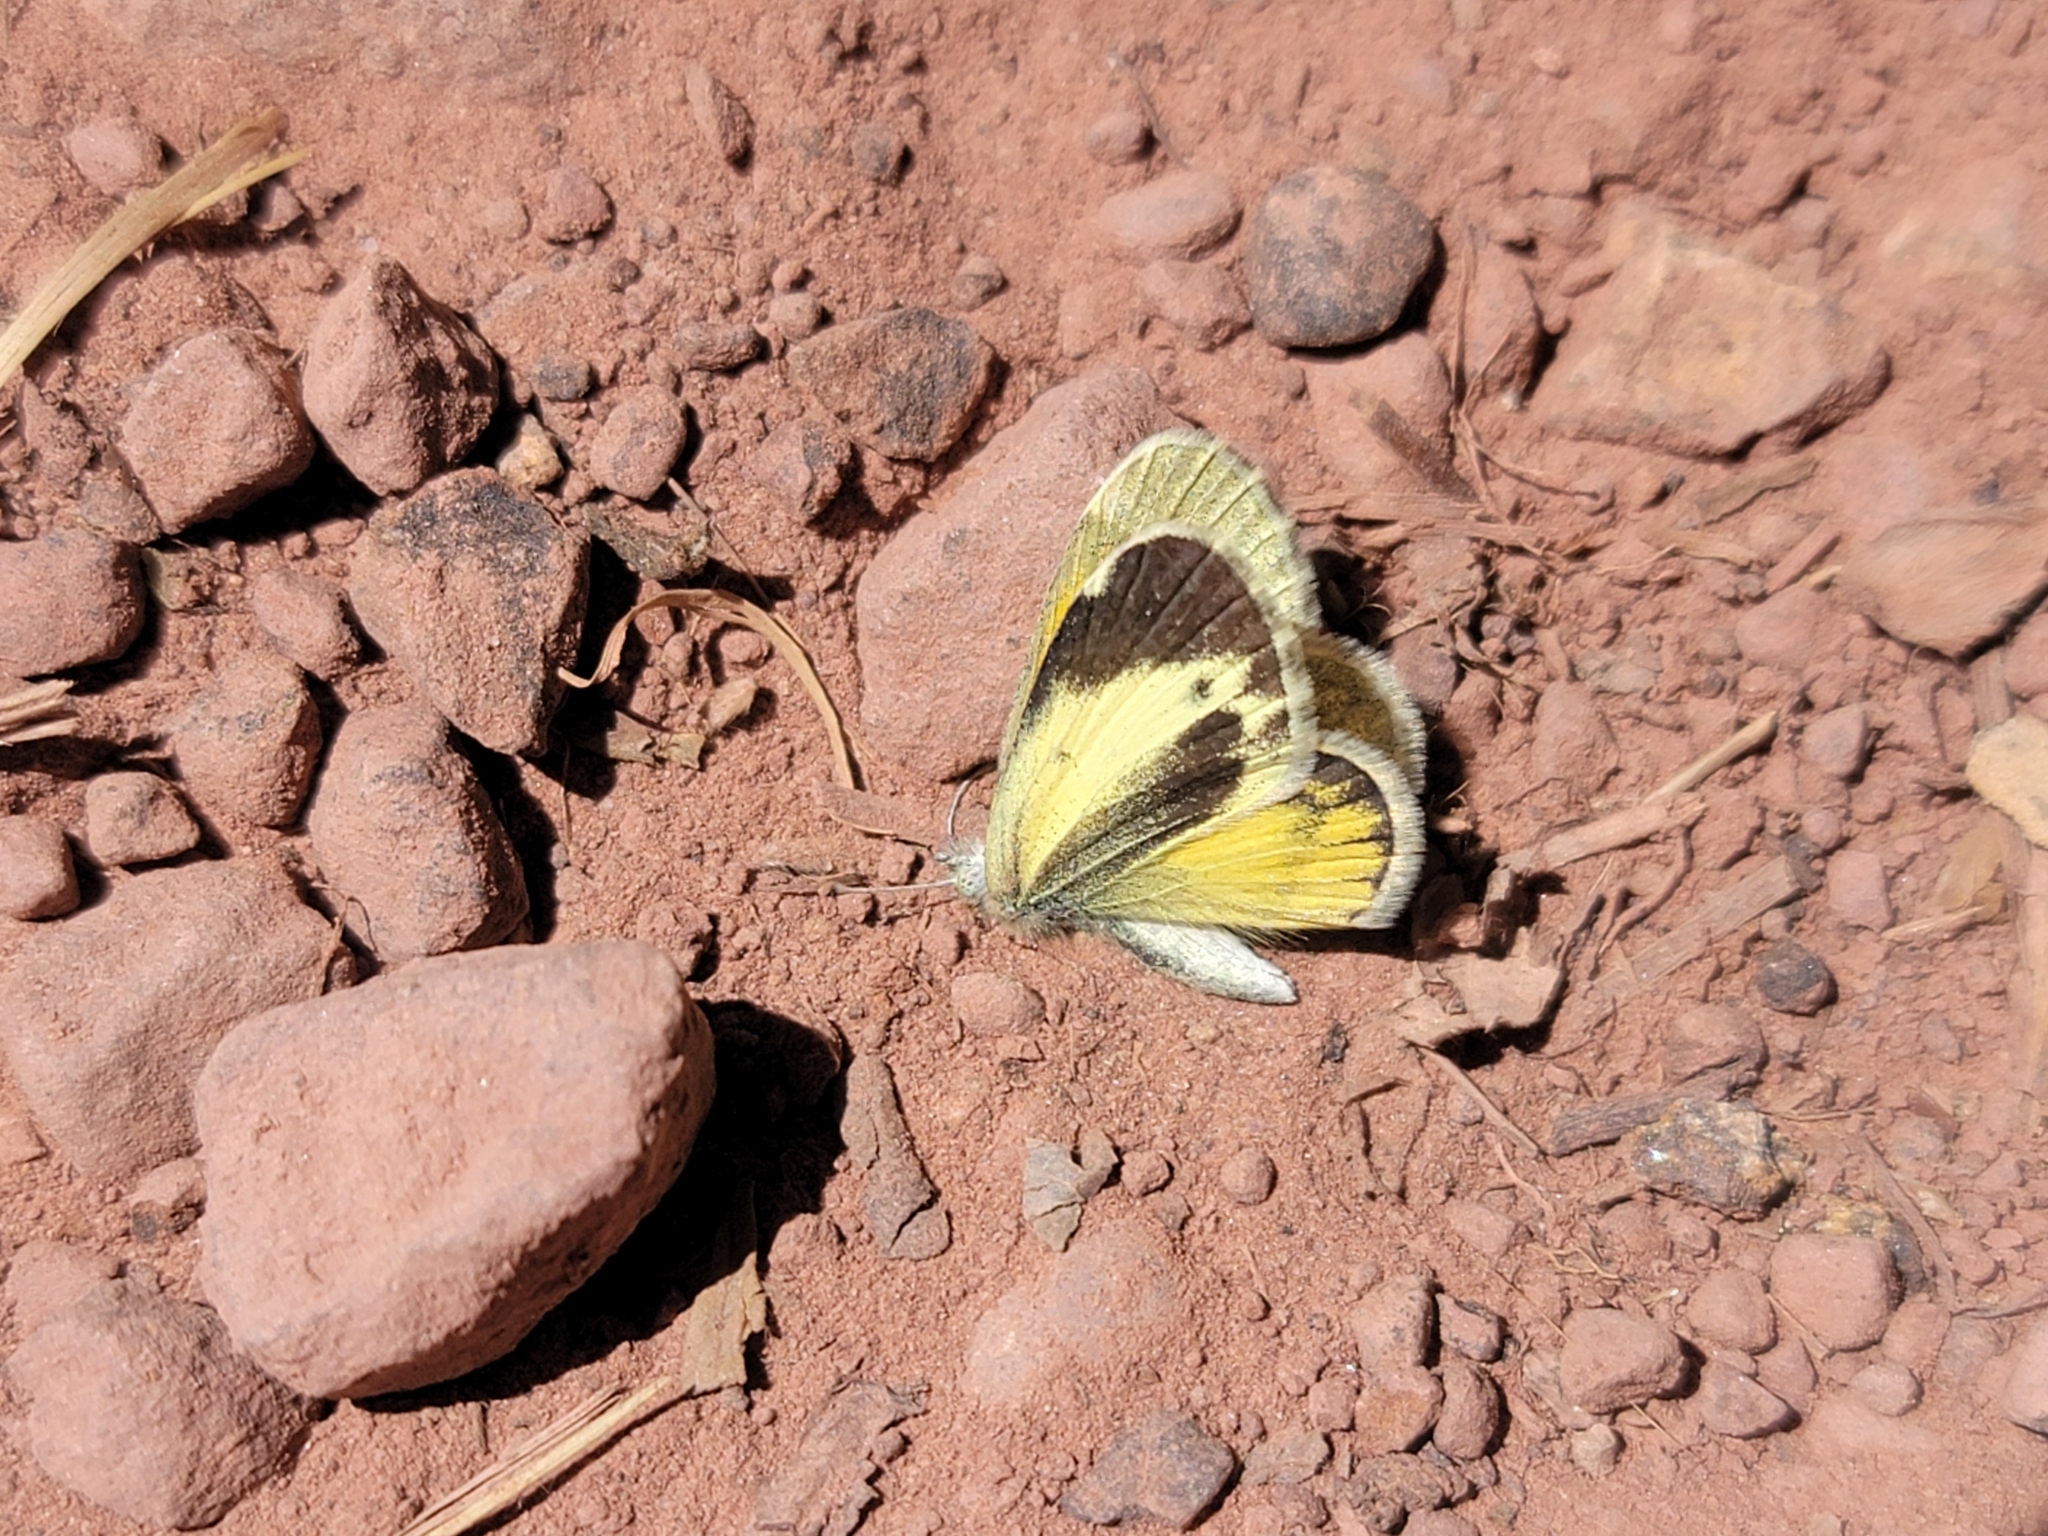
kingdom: Animalia
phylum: Arthropoda
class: Insecta
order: Lepidoptera
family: Pieridae
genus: Nathalis
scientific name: Nathalis iole
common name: Dainty sulphur
